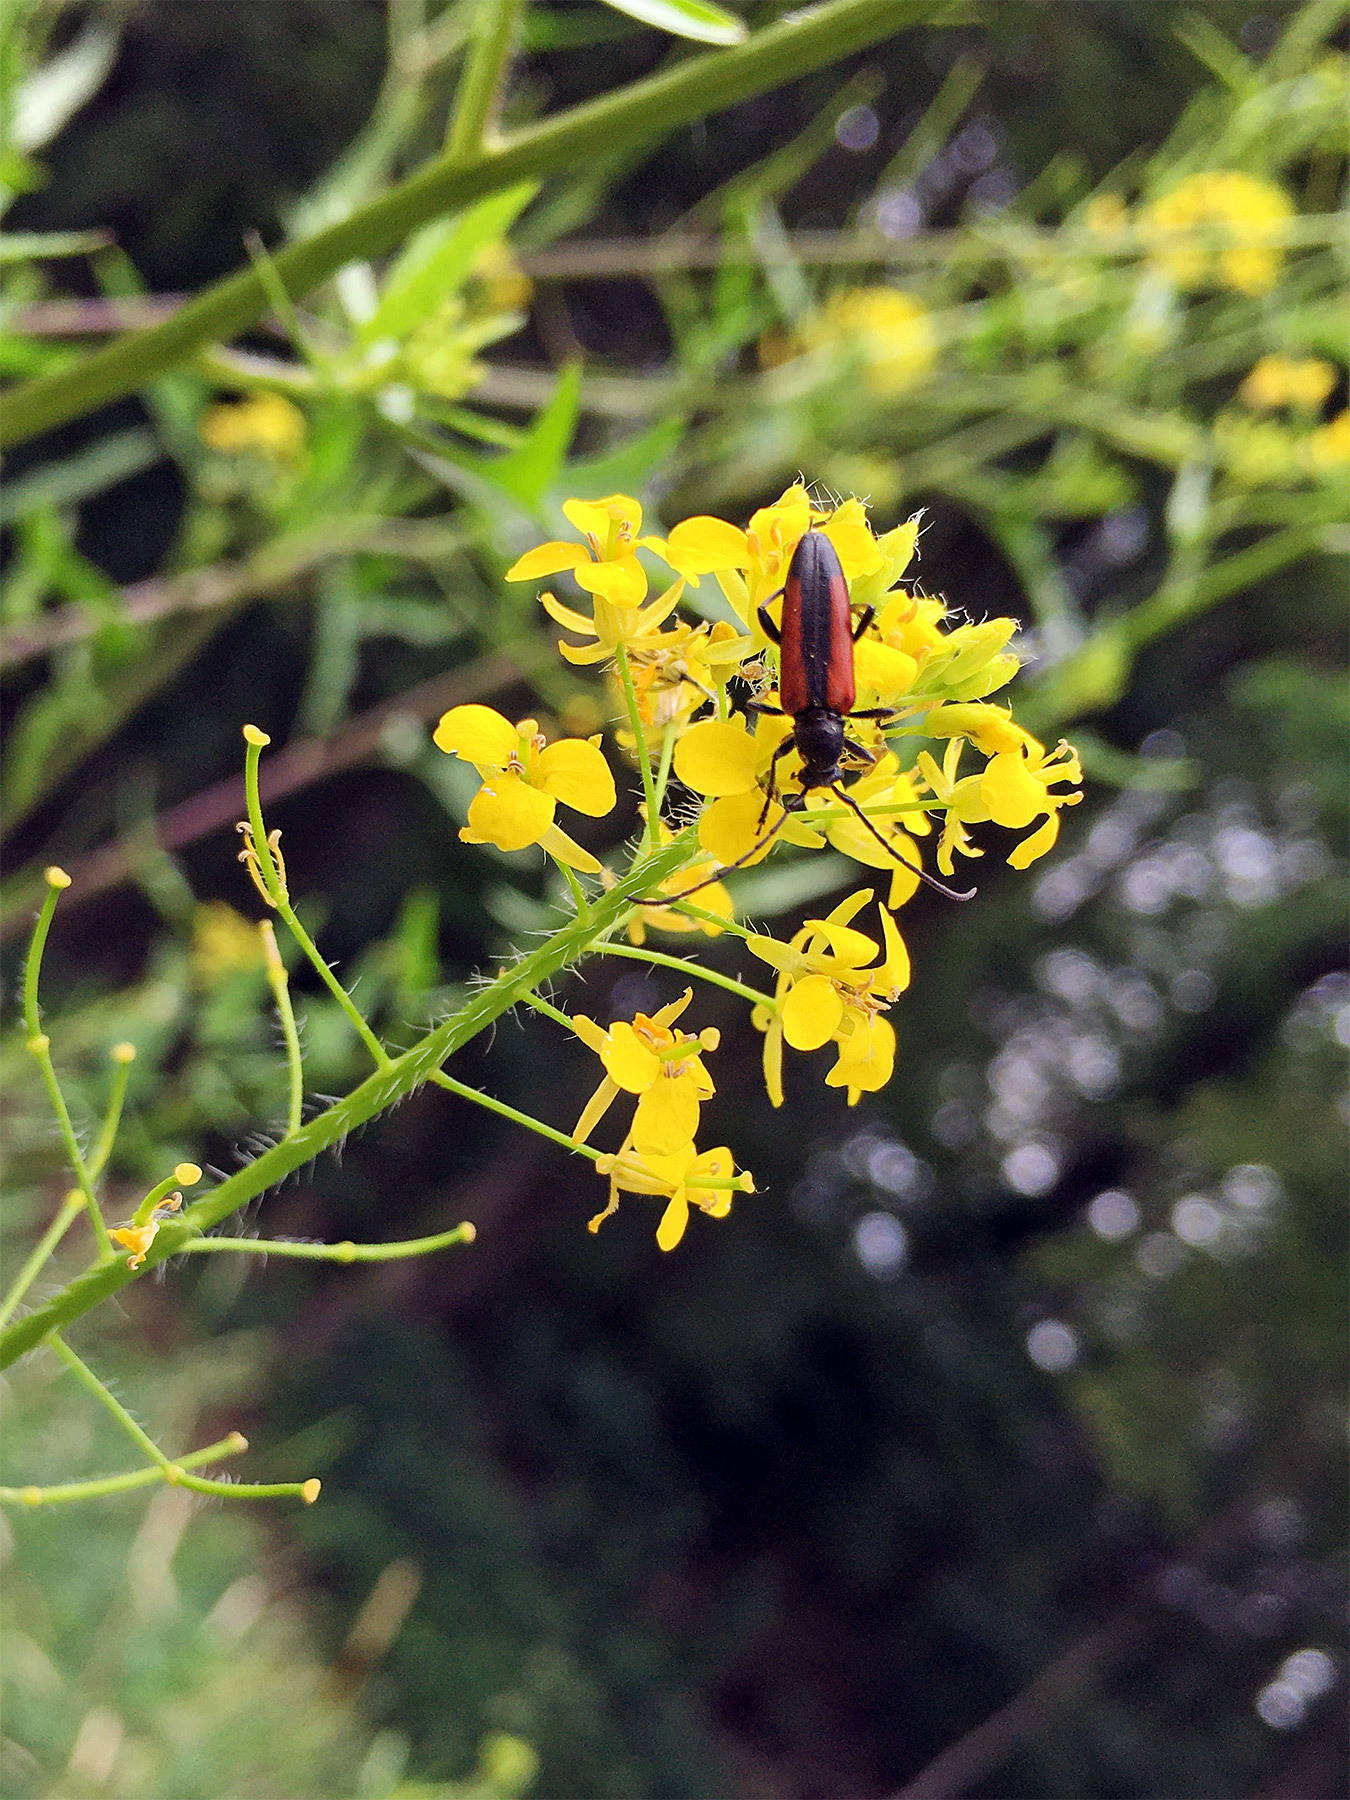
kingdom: Animalia
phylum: Arthropoda
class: Insecta
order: Coleoptera
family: Cerambycidae
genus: Stenurella
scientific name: Stenurella melanura
